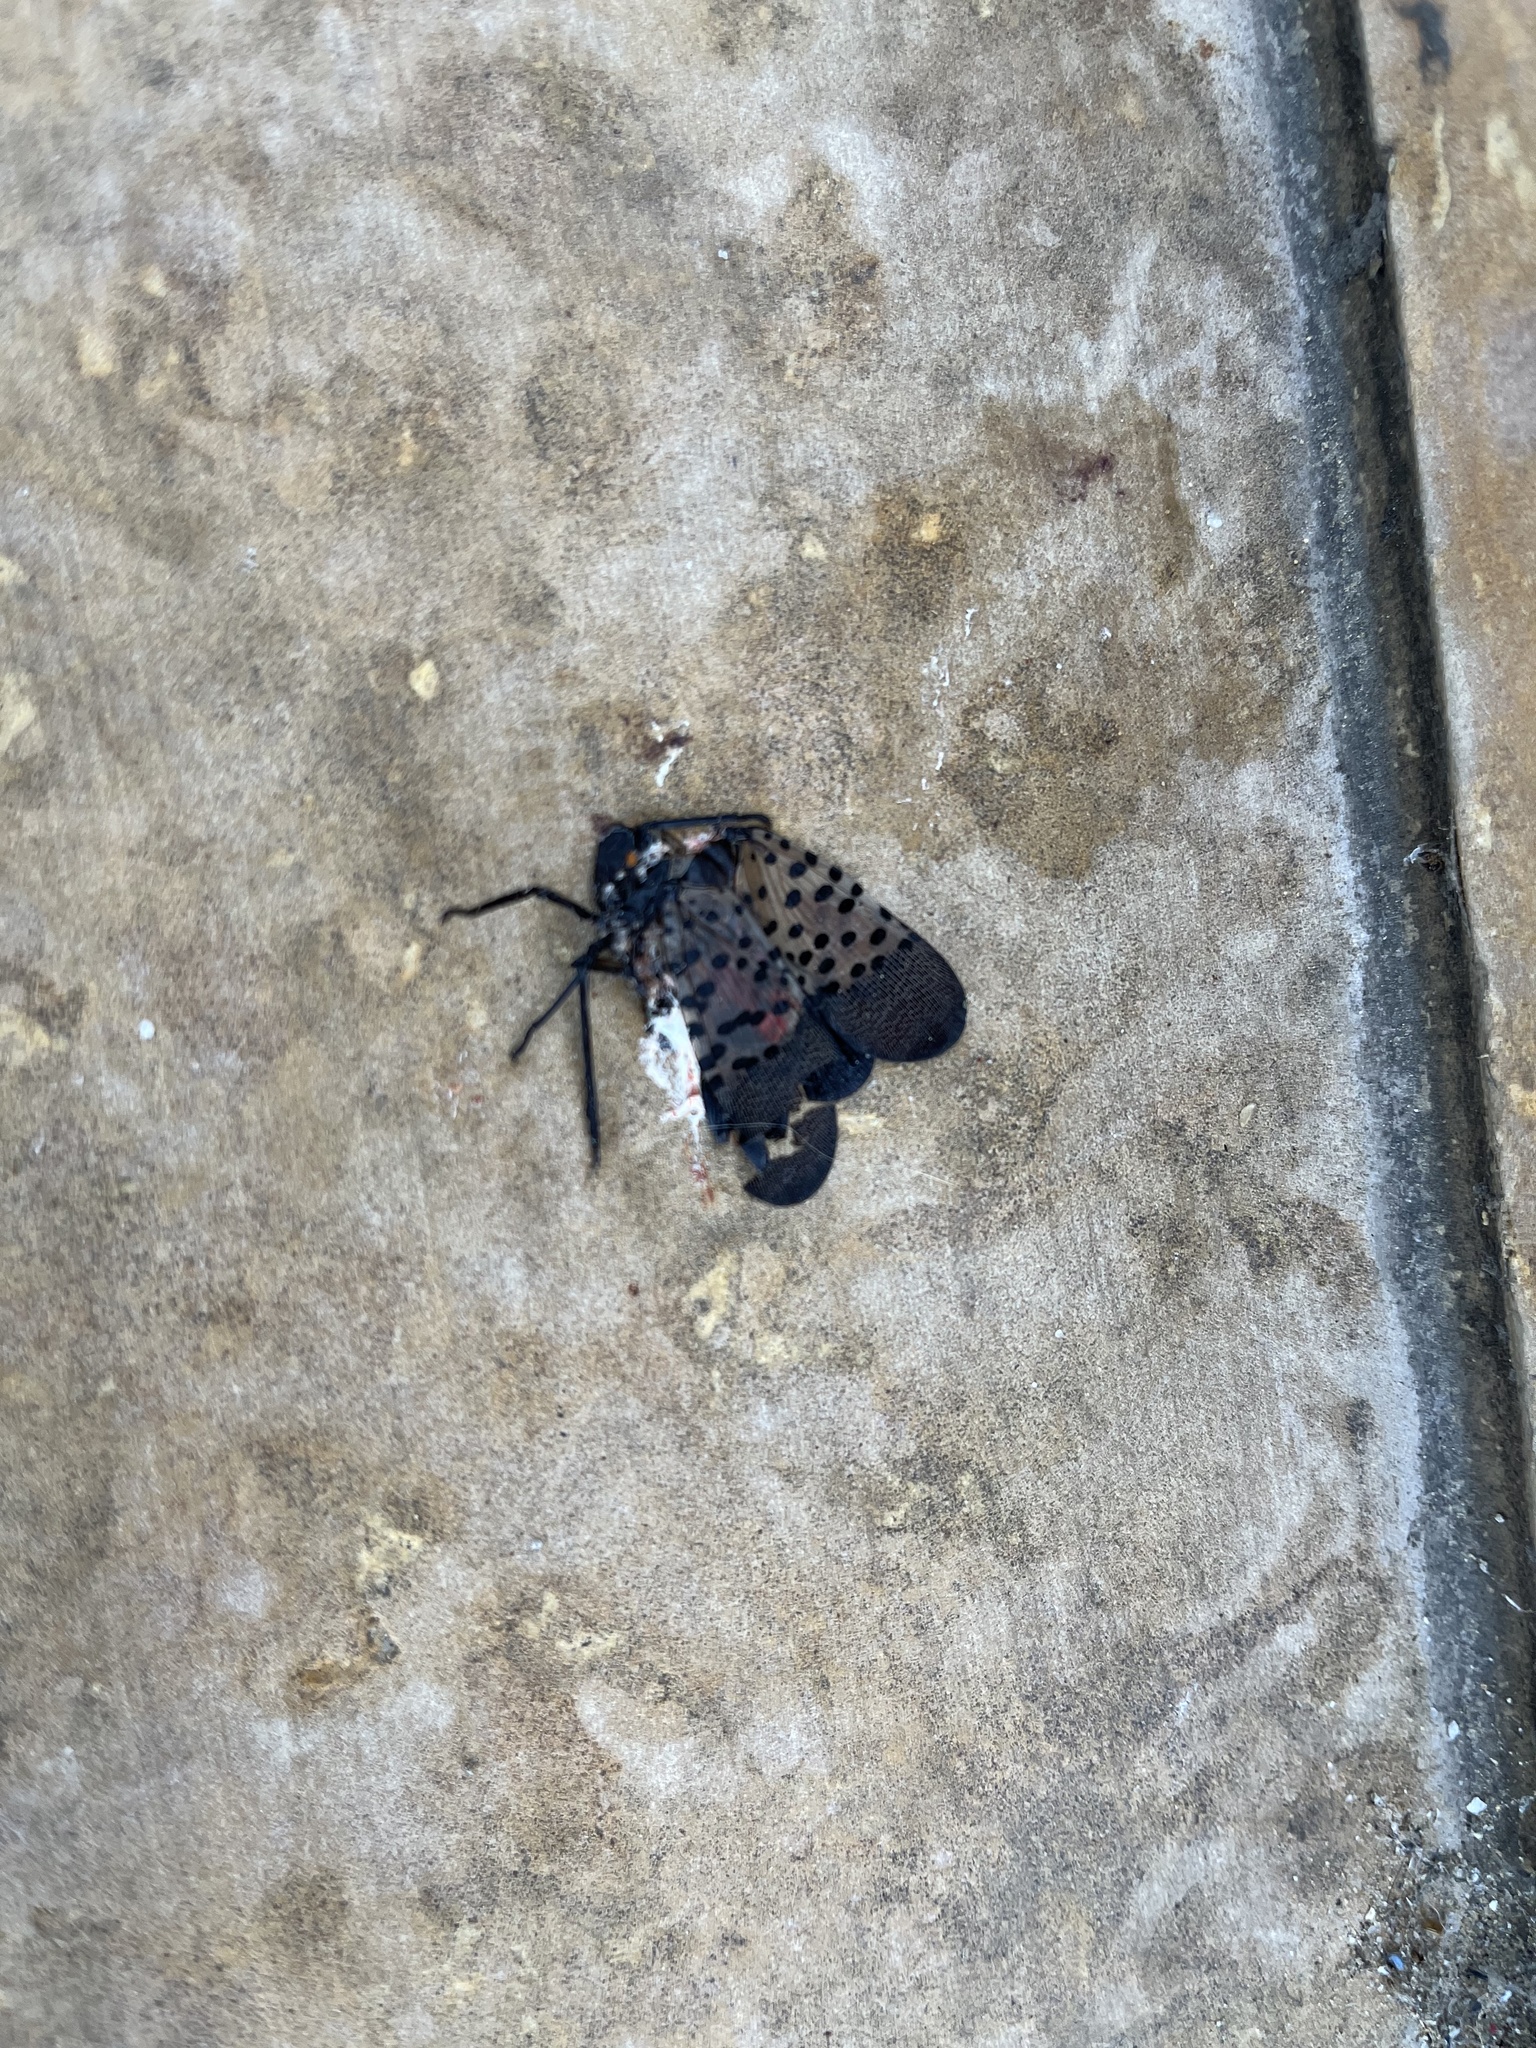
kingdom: Animalia
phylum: Arthropoda
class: Insecta
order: Hemiptera
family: Fulgoridae
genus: Lycorma
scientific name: Lycorma delicatula
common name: Spotted lanternfly
